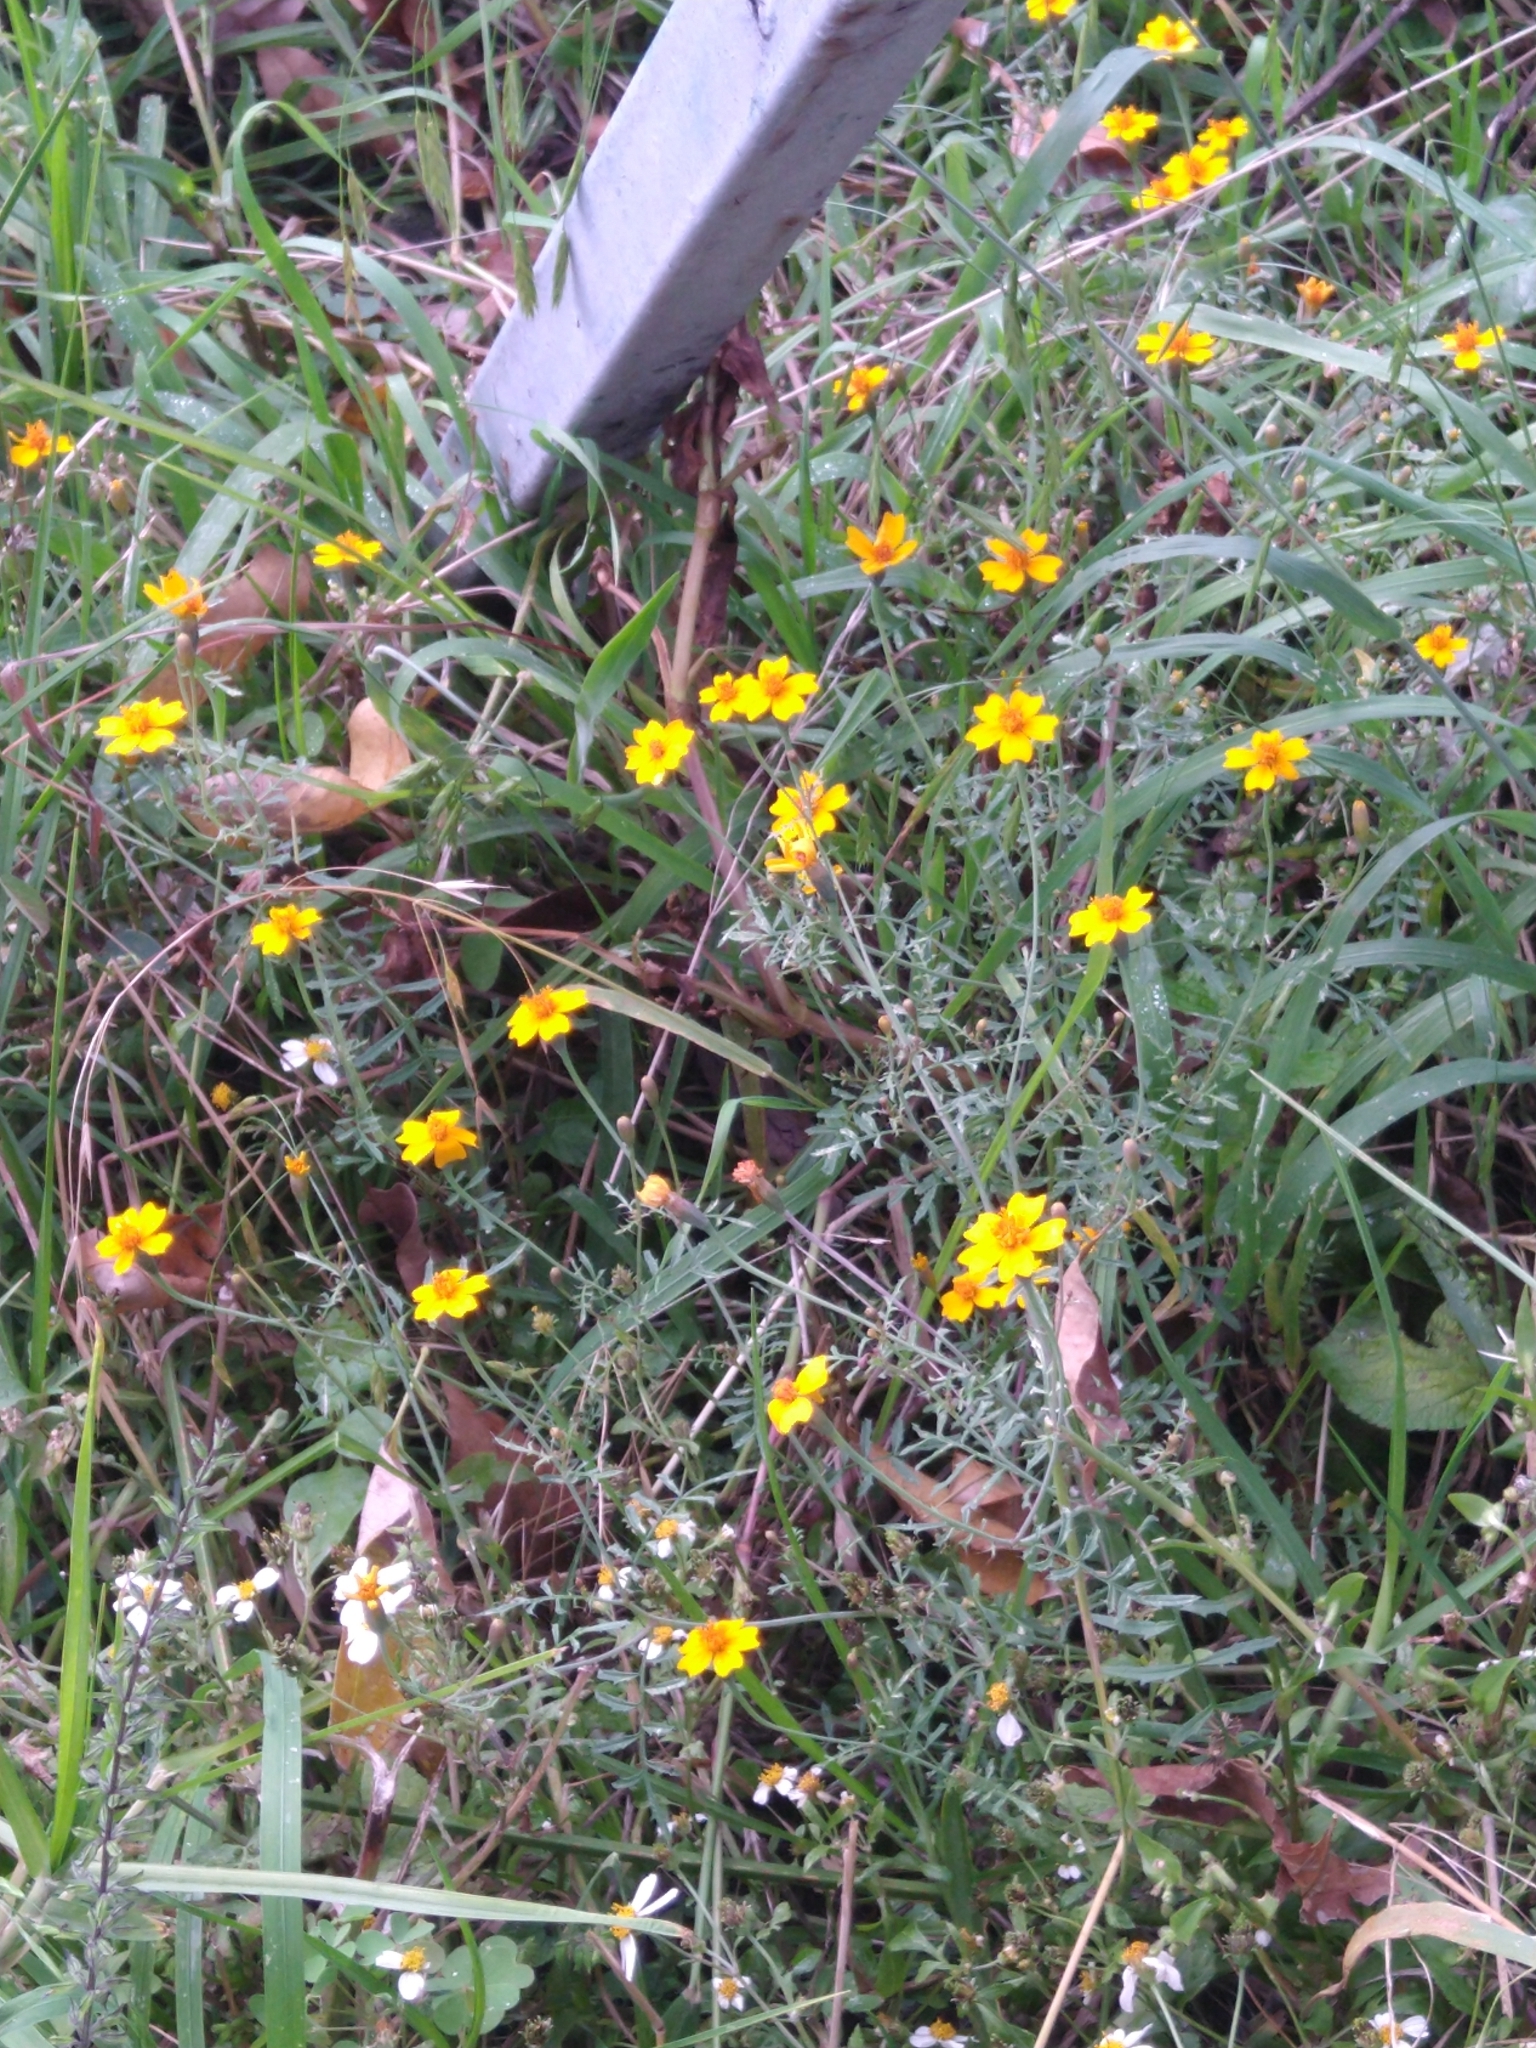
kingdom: Plantae
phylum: Tracheophyta
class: Magnoliopsida
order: Asterales
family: Asteraceae
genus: Tagetes
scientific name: Tagetes lunulata
